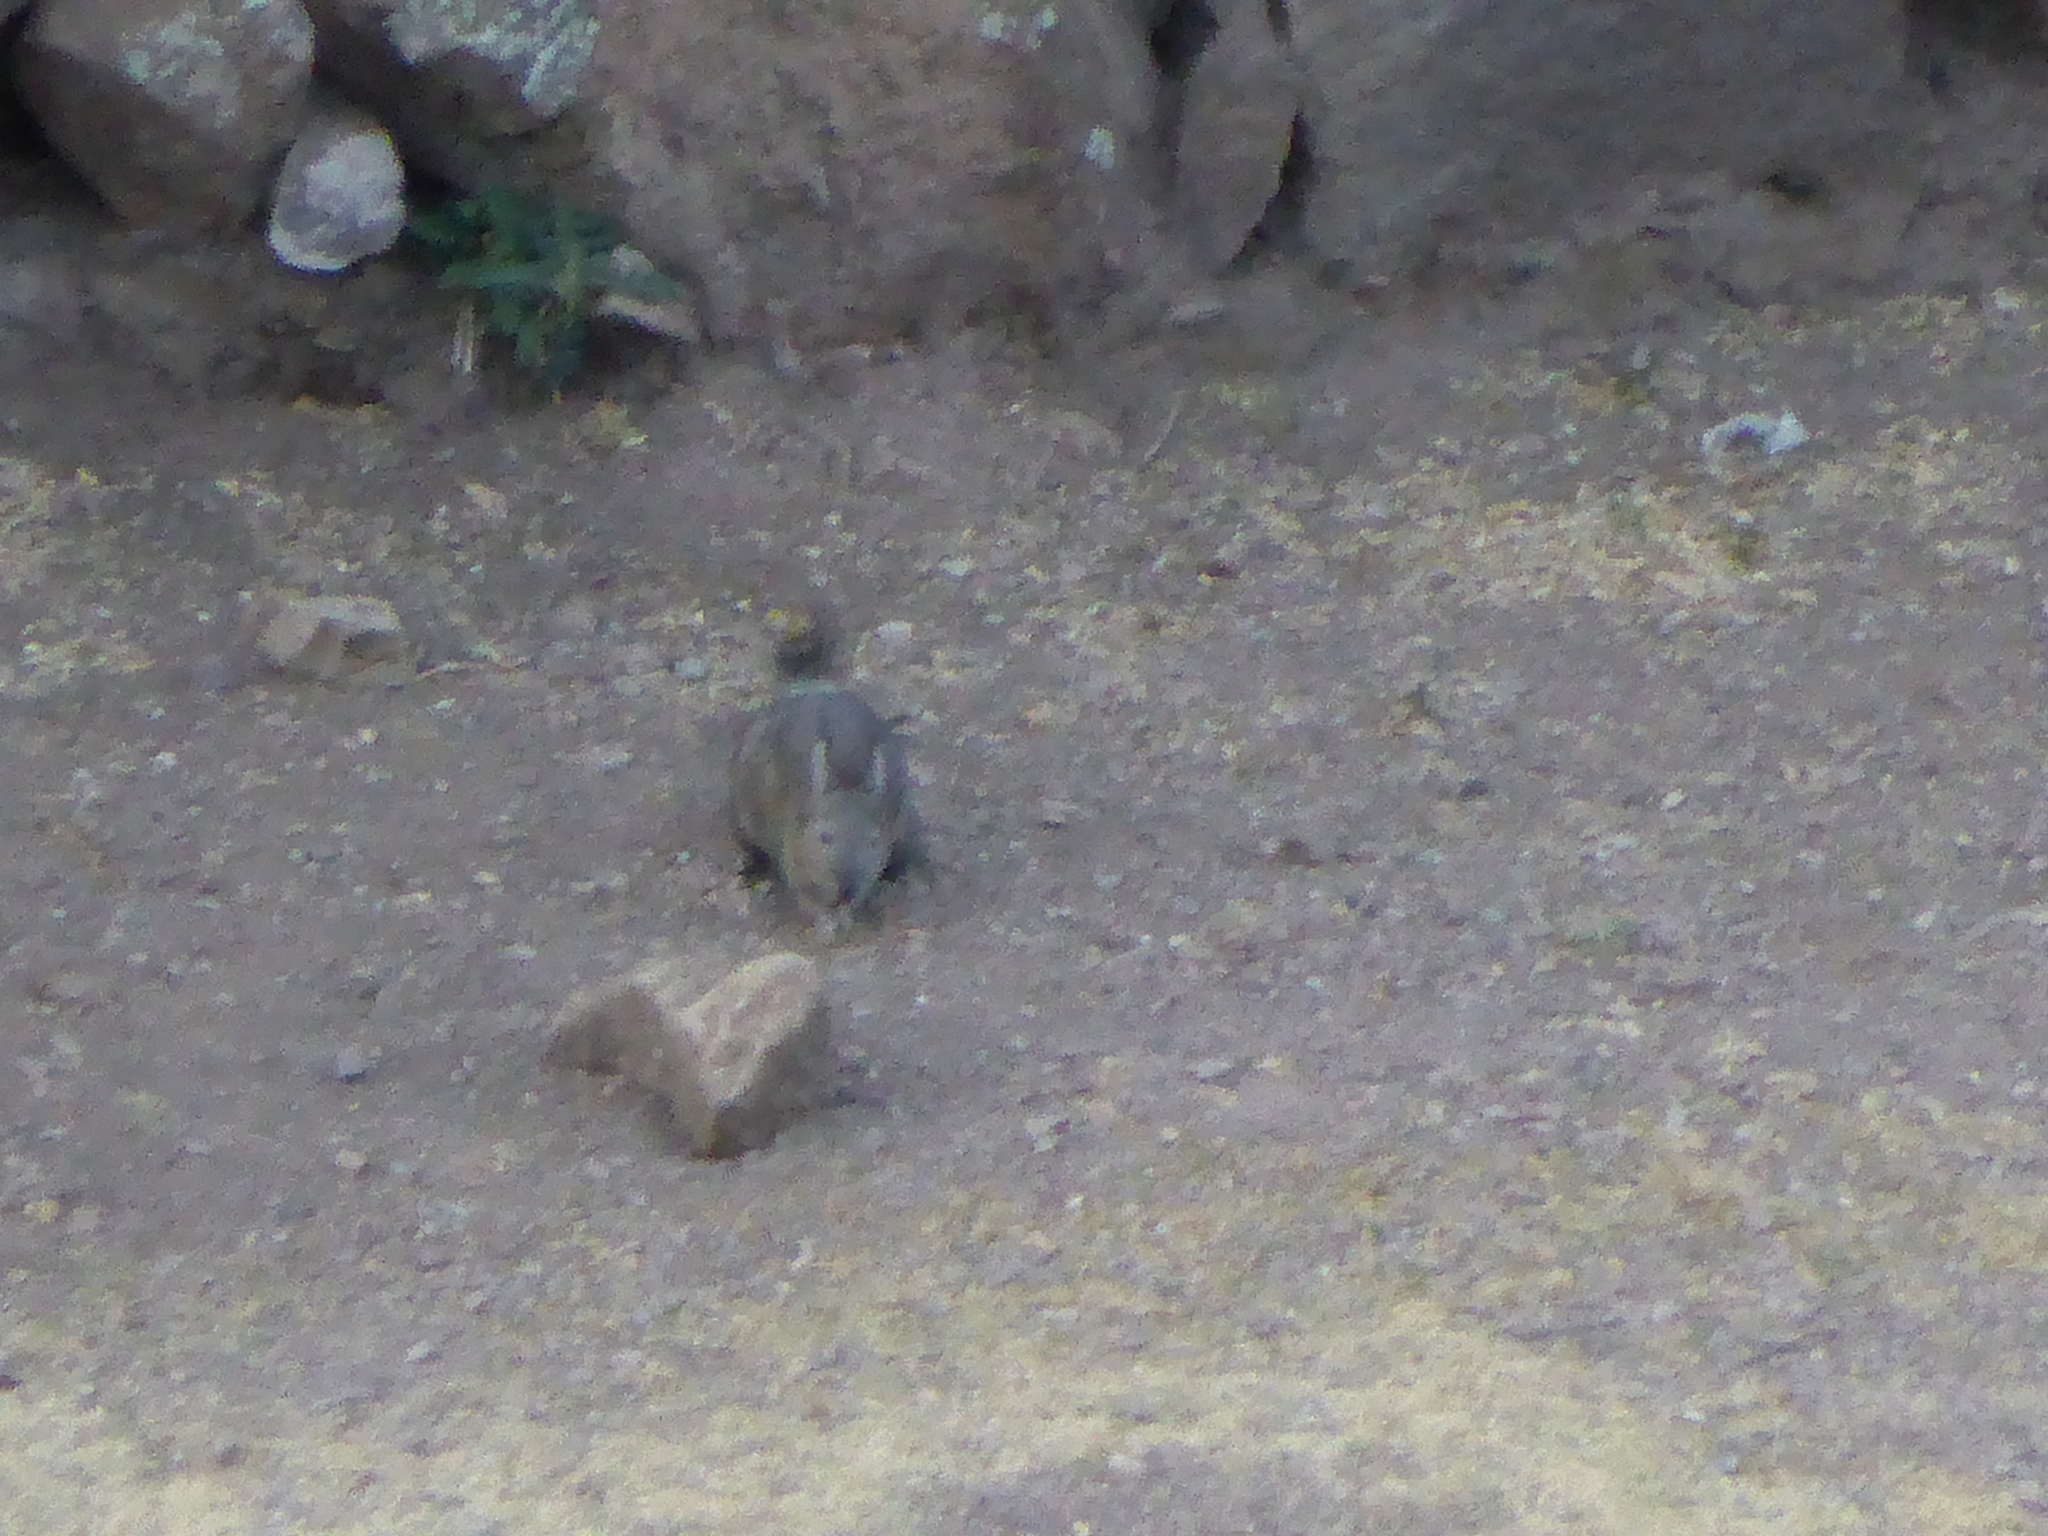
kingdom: Animalia
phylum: Chordata
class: Mammalia
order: Rodentia
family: Chinchillidae
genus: Lagidium
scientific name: Lagidium viscacia
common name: Southern viscacha
